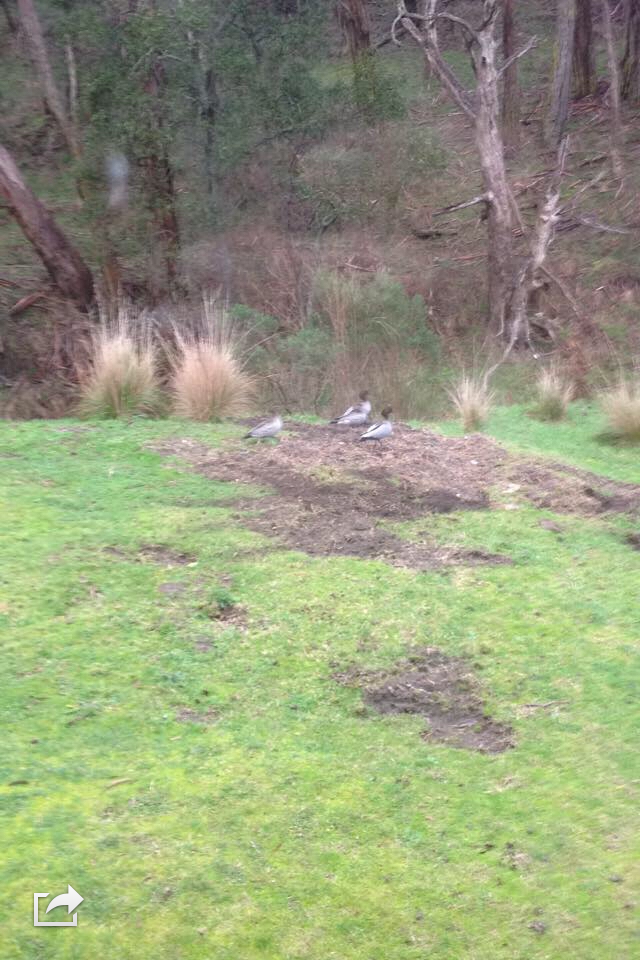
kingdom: Animalia
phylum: Chordata
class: Aves
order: Anseriformes
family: Anatidae
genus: Chenonetta
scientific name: Chenonetta jubata
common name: Maned duck
